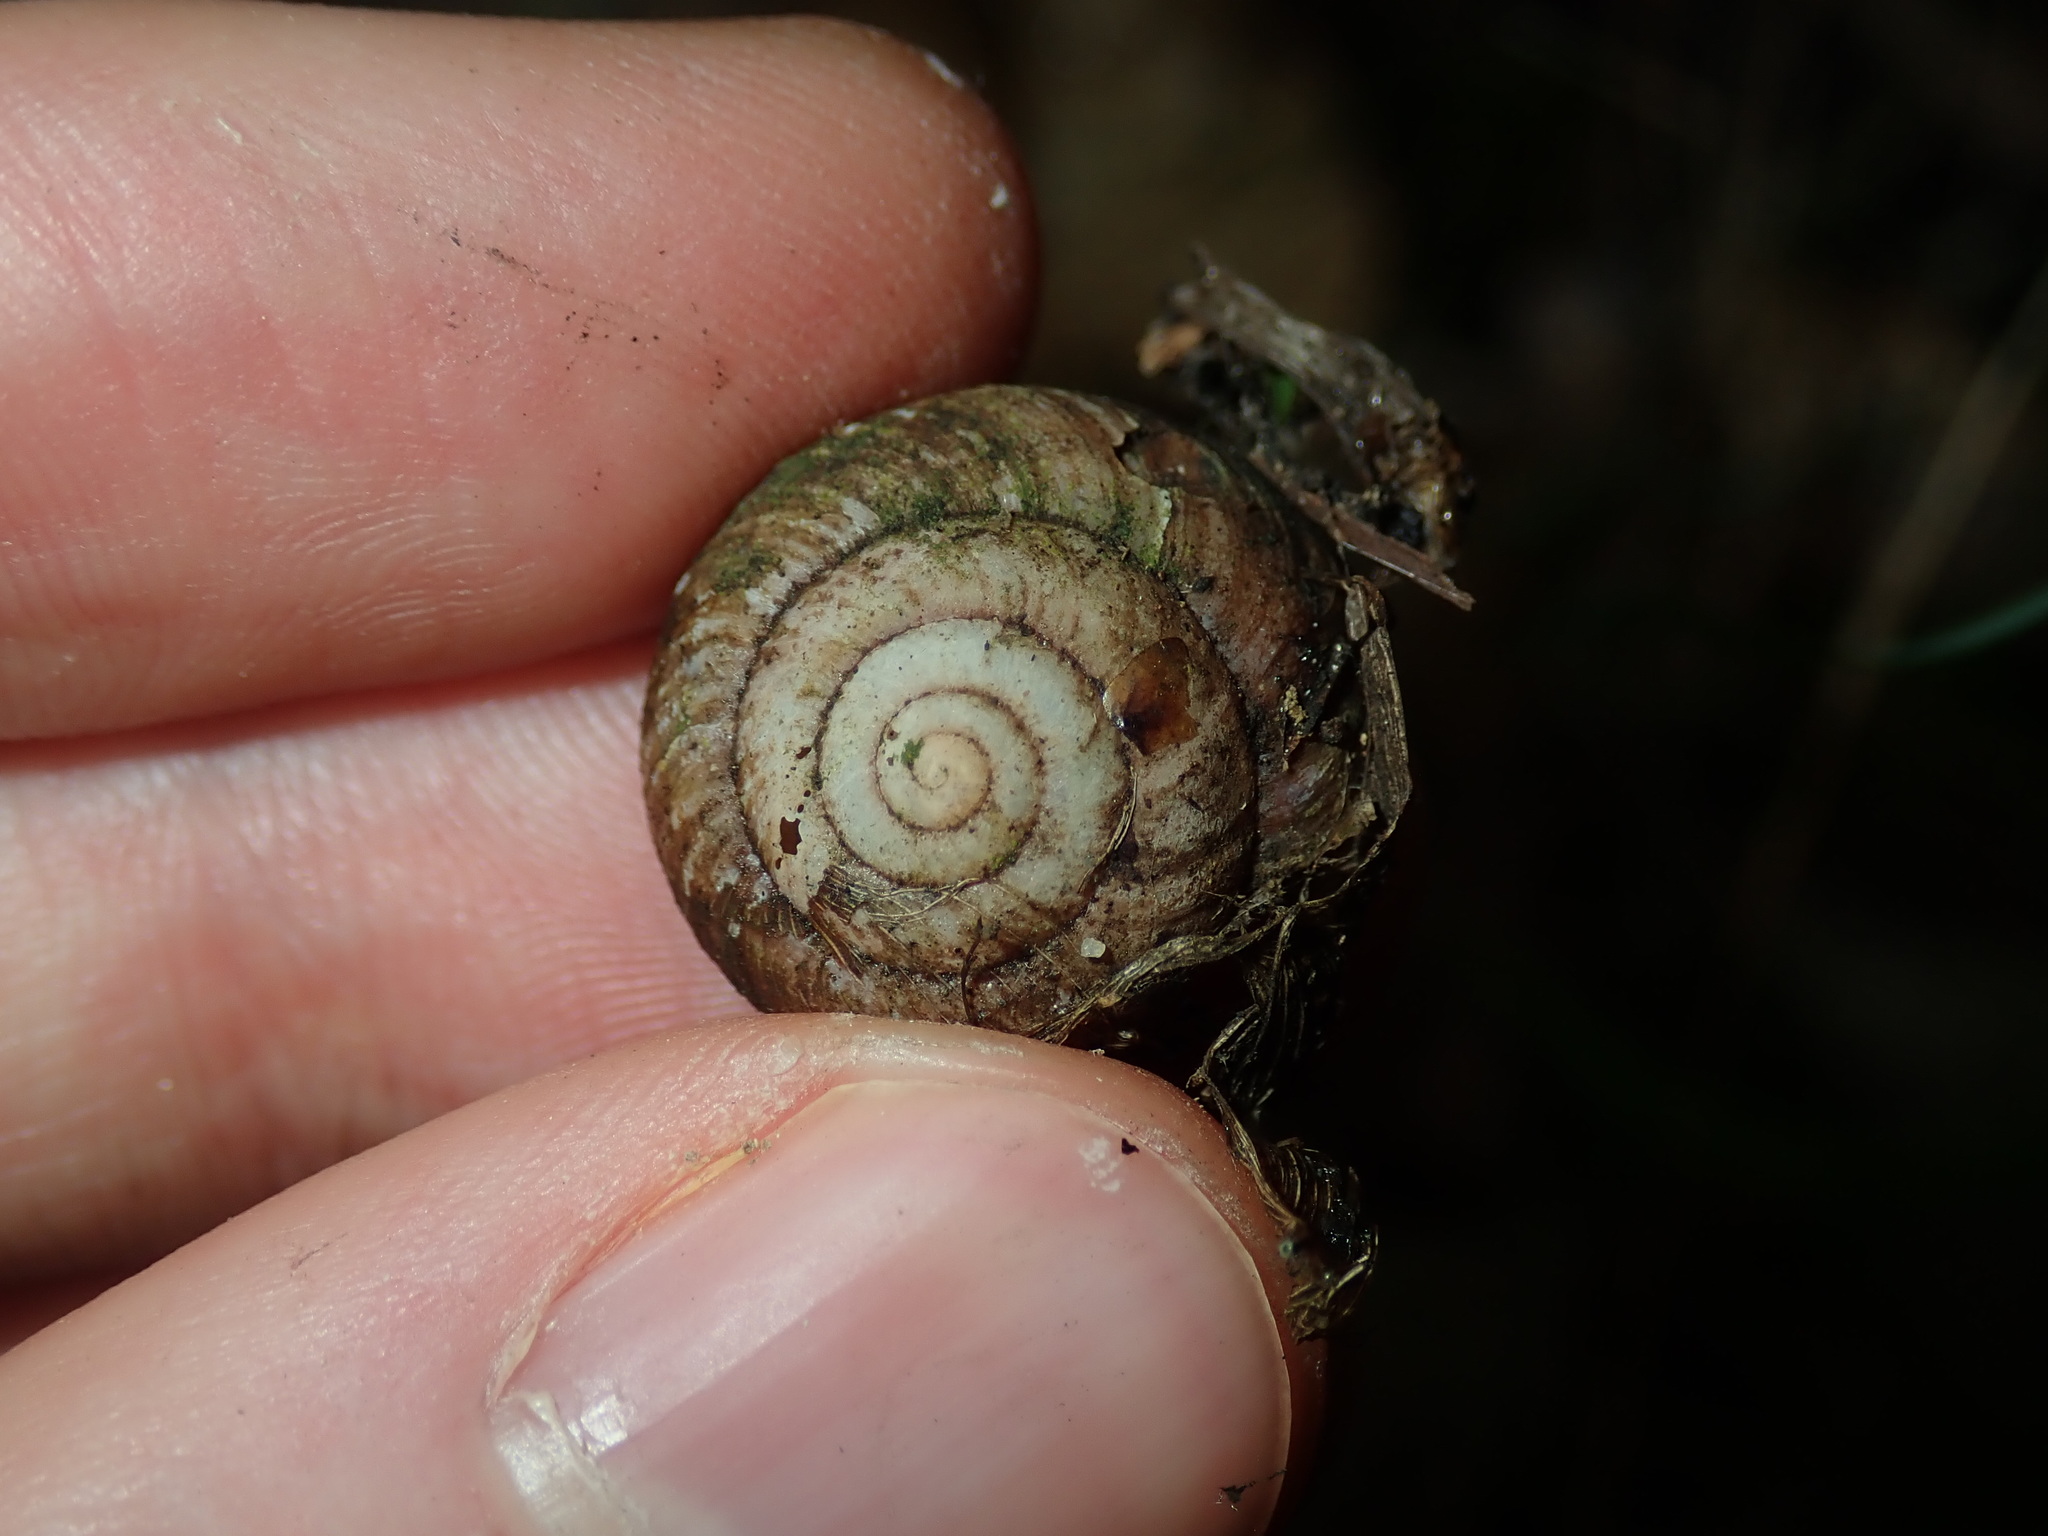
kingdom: Animalia
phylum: Mollusca
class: Gastropoda
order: Stylommatophora
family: Camaenidae
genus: Sauroconcha
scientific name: Sauroconcha sheai
